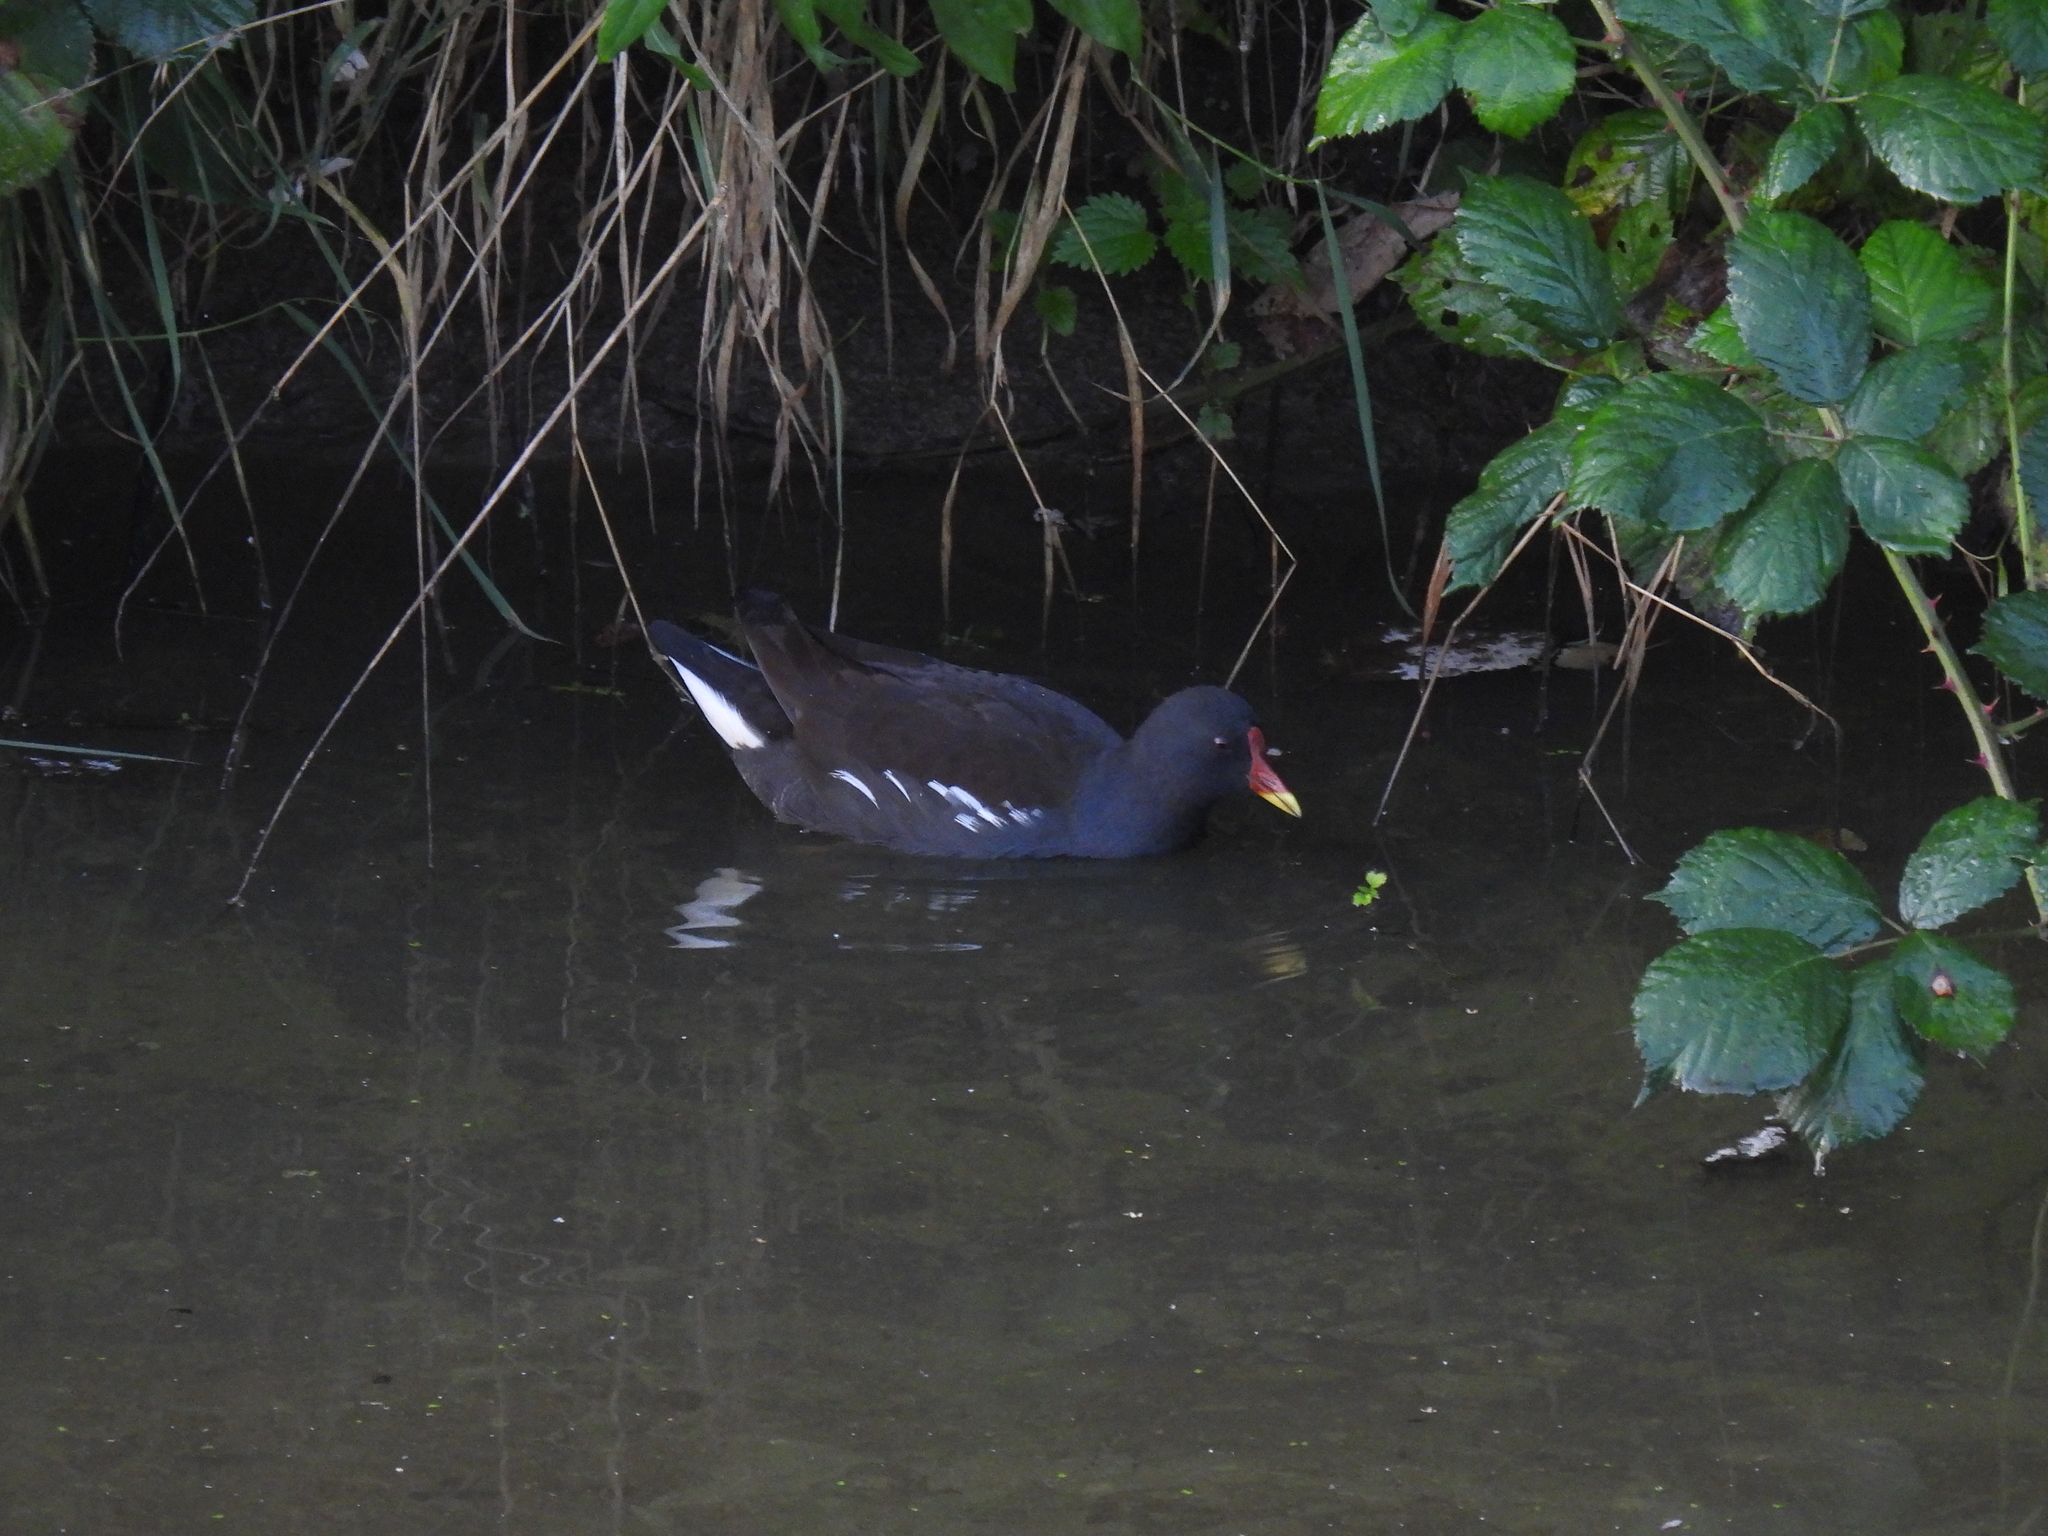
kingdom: Animalia
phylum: Chordata
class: Aves
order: Gruiformes
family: Rallidae
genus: Gallinula
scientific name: Gallinula chloropus
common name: Common moorhen
